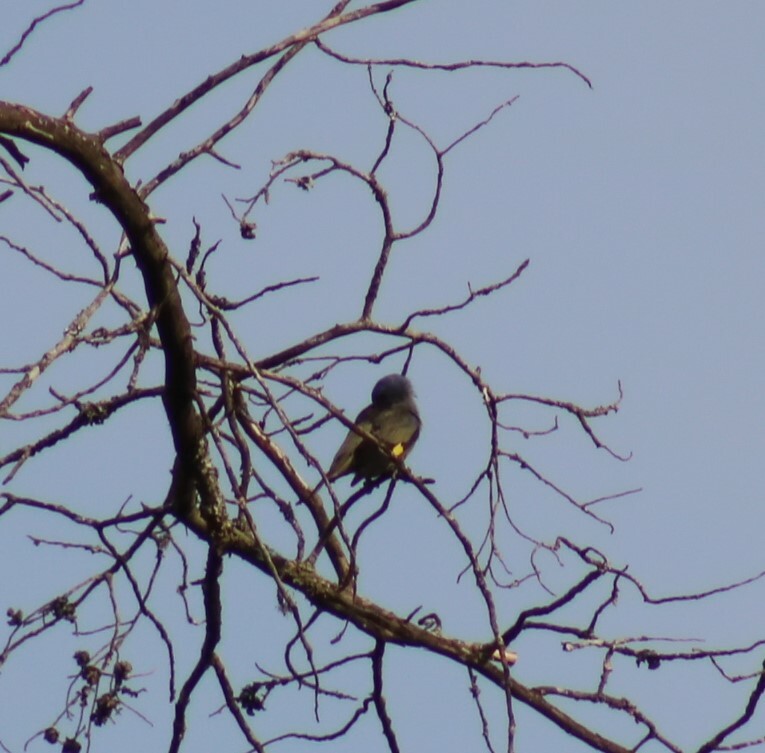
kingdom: Animalia
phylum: Chordata
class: Aves
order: Passeriformes
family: Thraupidae
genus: Thraupis
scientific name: Thraupis abbas
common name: Yellow-winged tanager
